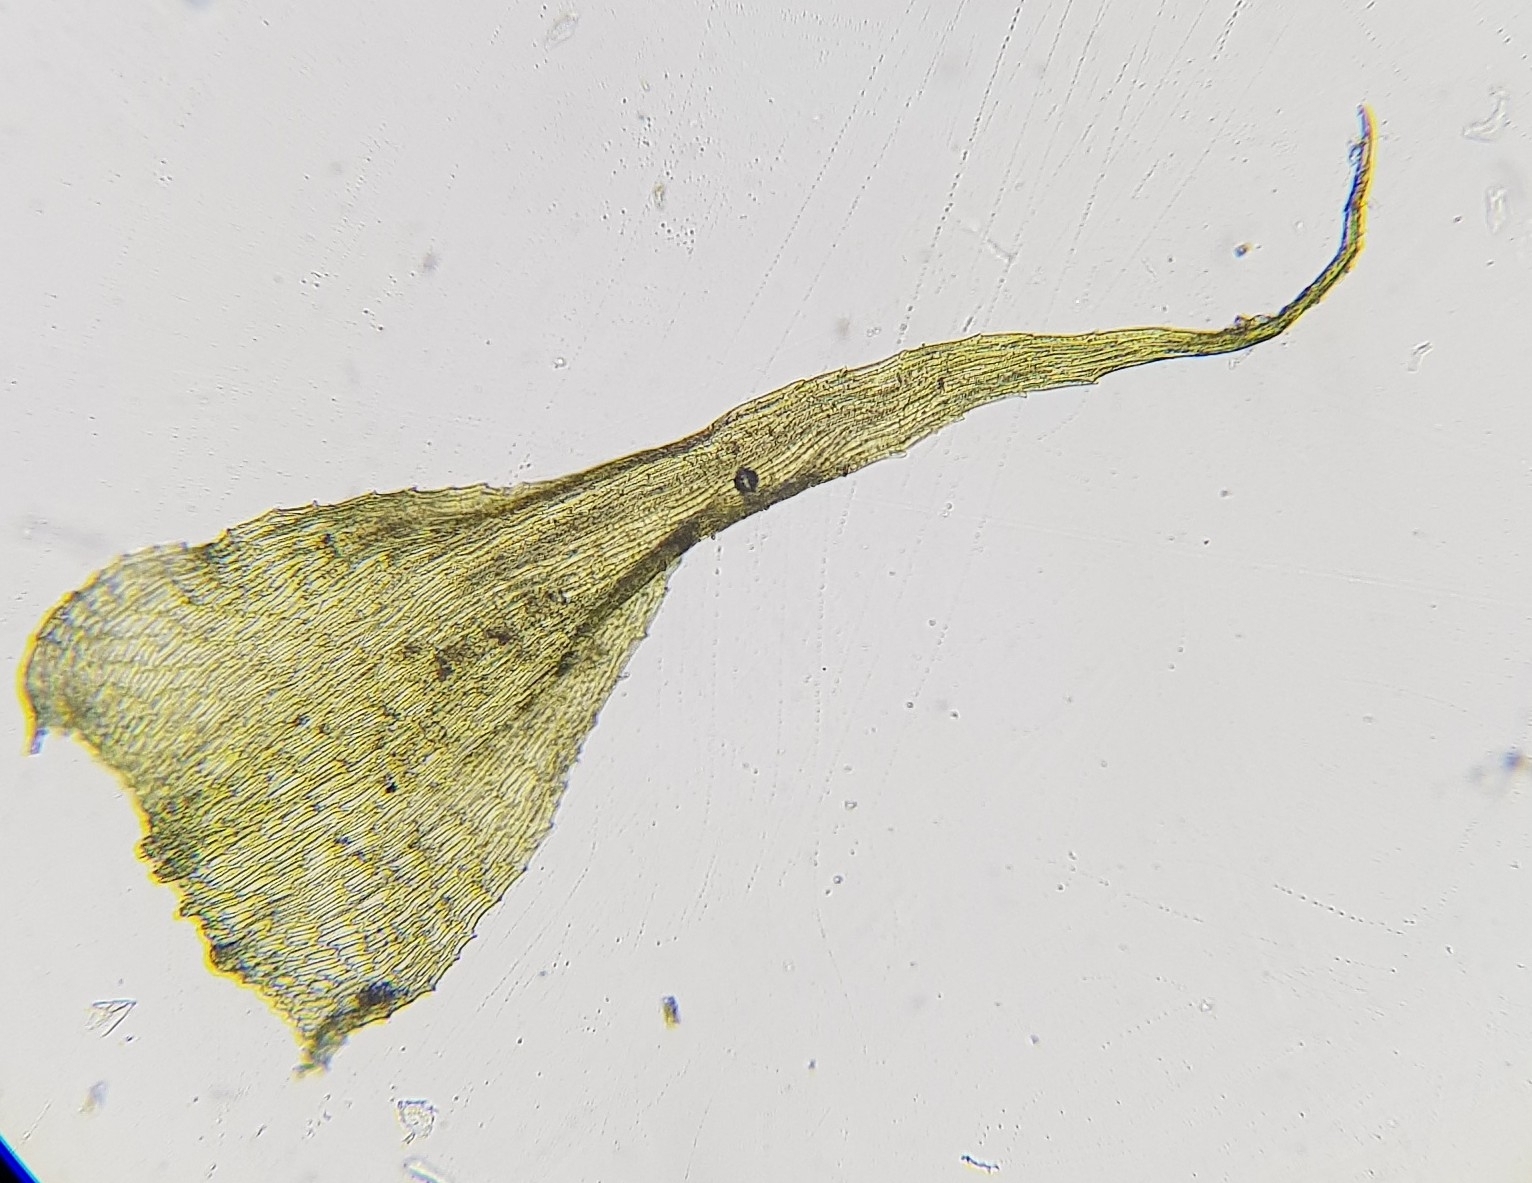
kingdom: Plantae
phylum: Bryophyta
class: Bryopsida
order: Hypnales
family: Amblystegiaceae
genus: Campylium
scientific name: Campylium protensum
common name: Dull starry fen moss
